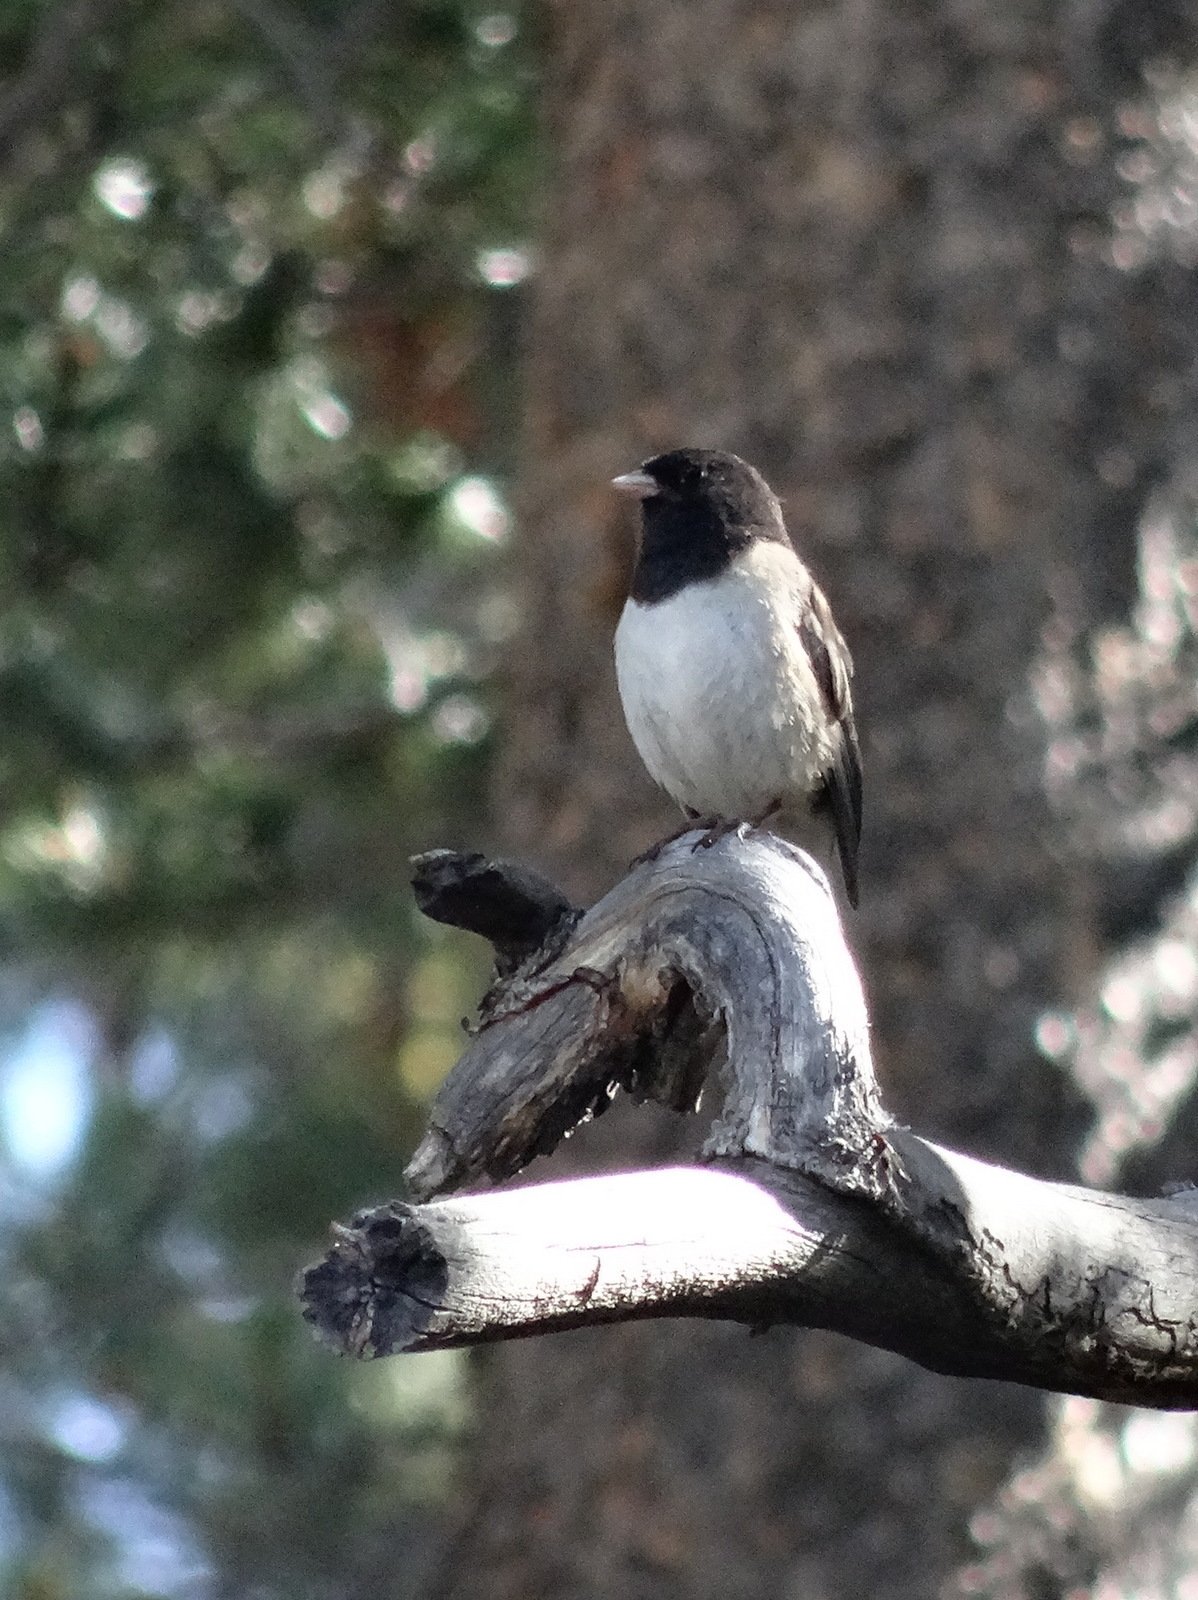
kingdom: Animalia
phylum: Chordata
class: Aves
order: Passeriformes
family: Passerellidae
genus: Junco
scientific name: Junco hyemalis
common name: Dark-eyed junco
